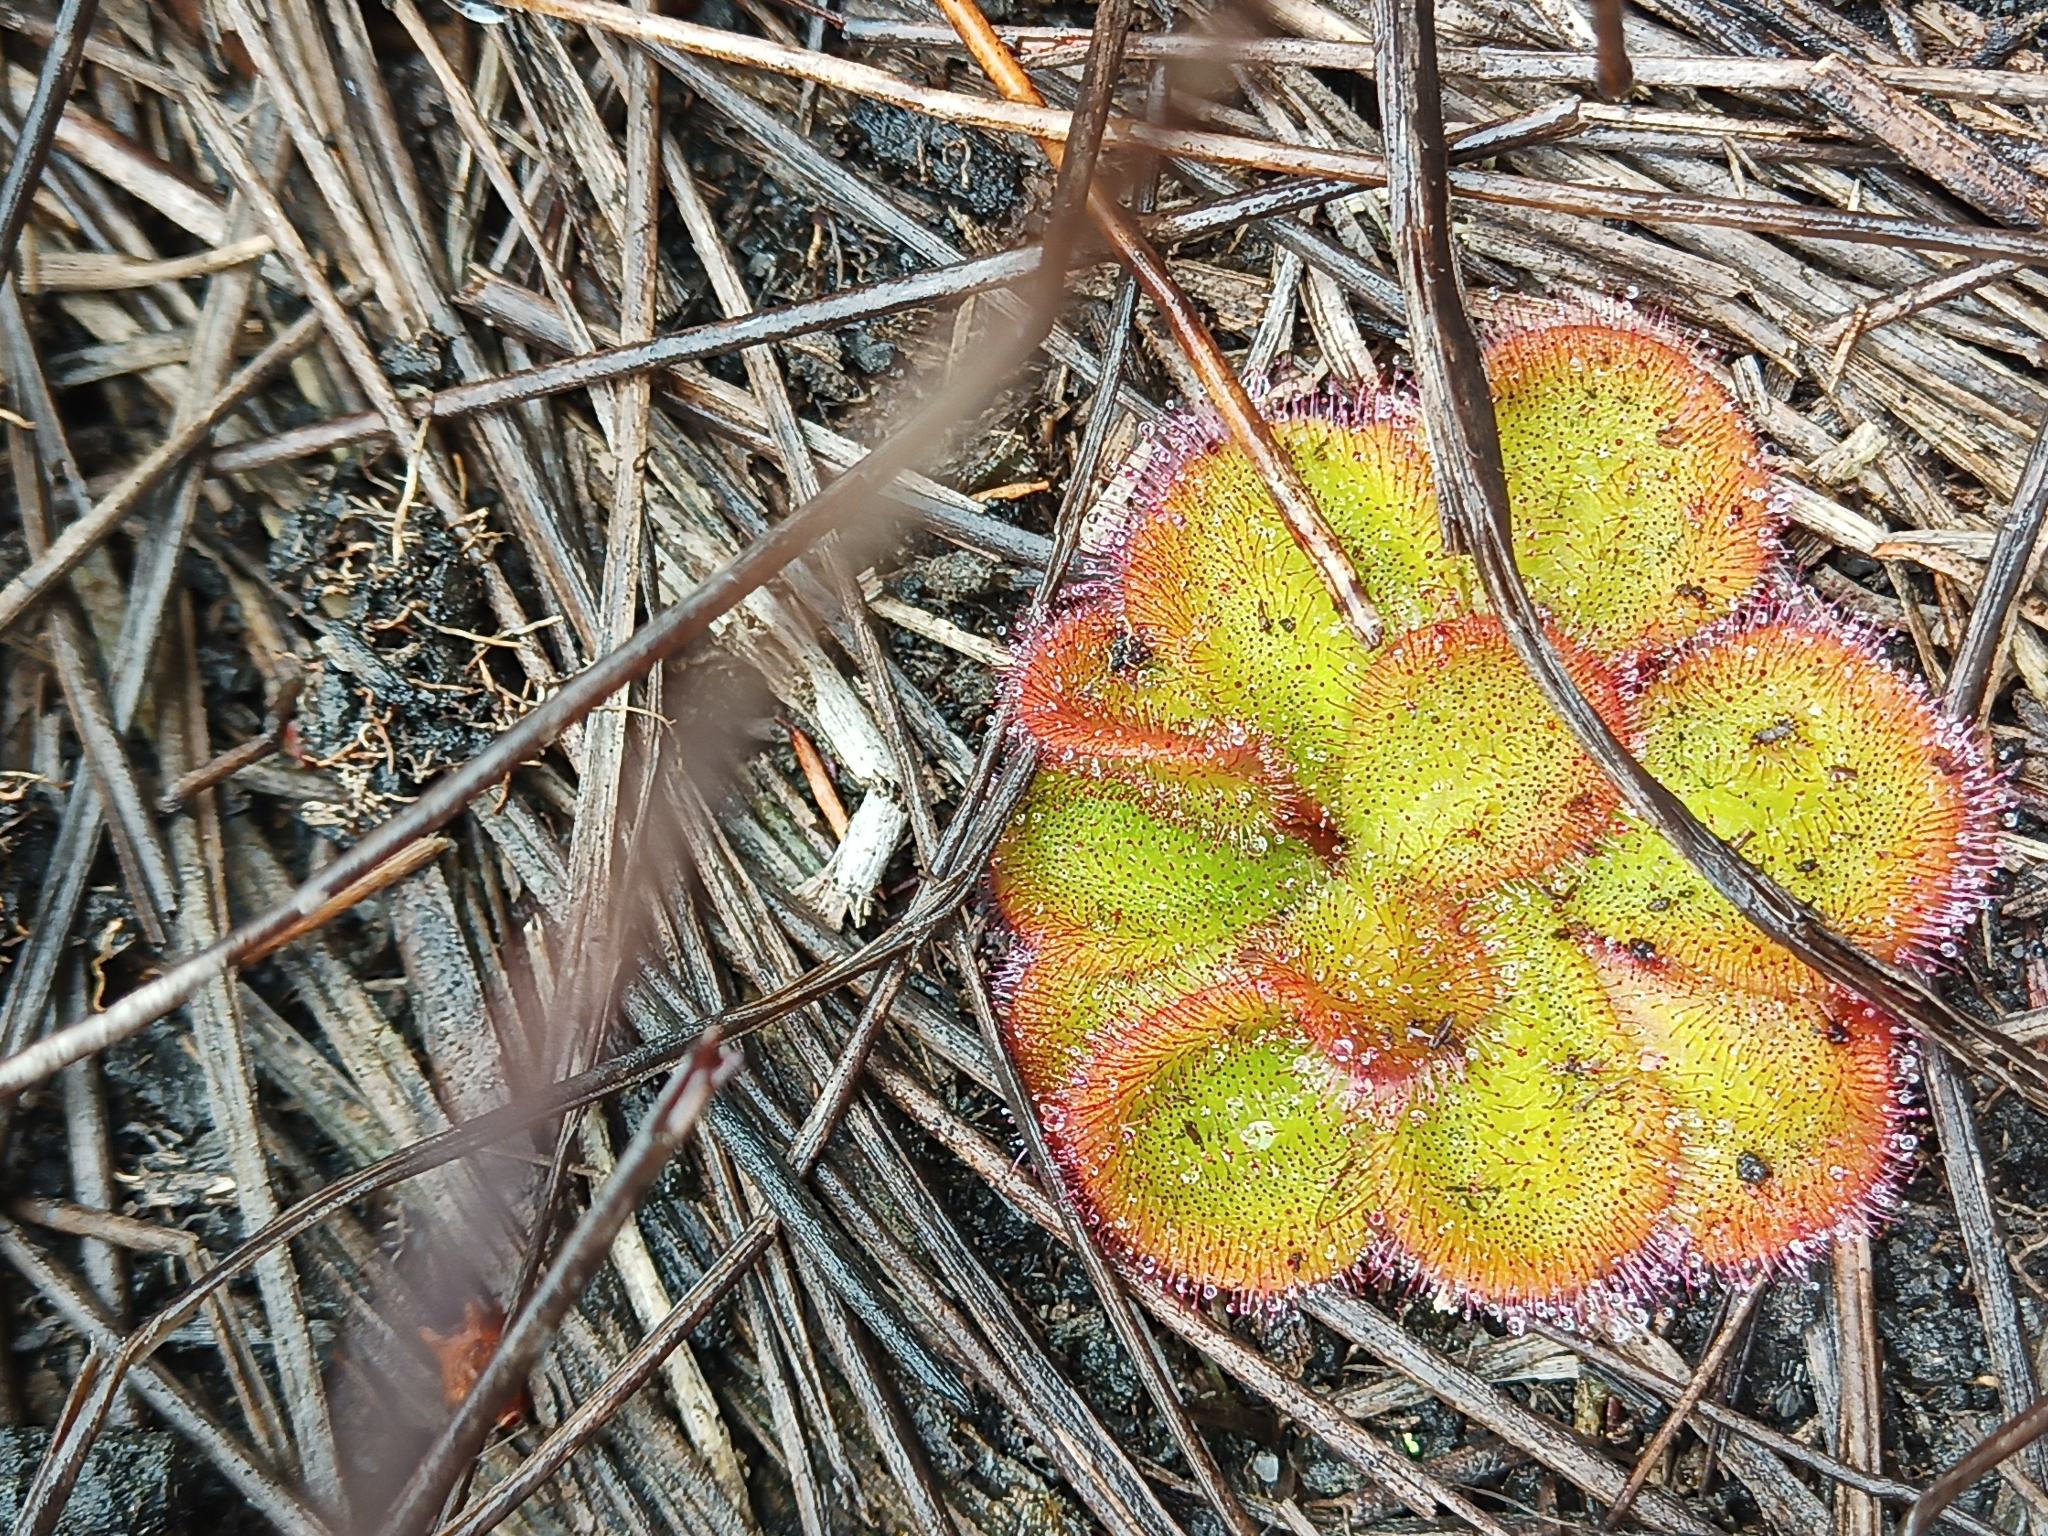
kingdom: Plantae
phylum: Tracheophyta
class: Magnoliopsida
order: Caryophyllales
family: Droseraceae
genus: Drosera
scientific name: Drosera erythrorhiza
